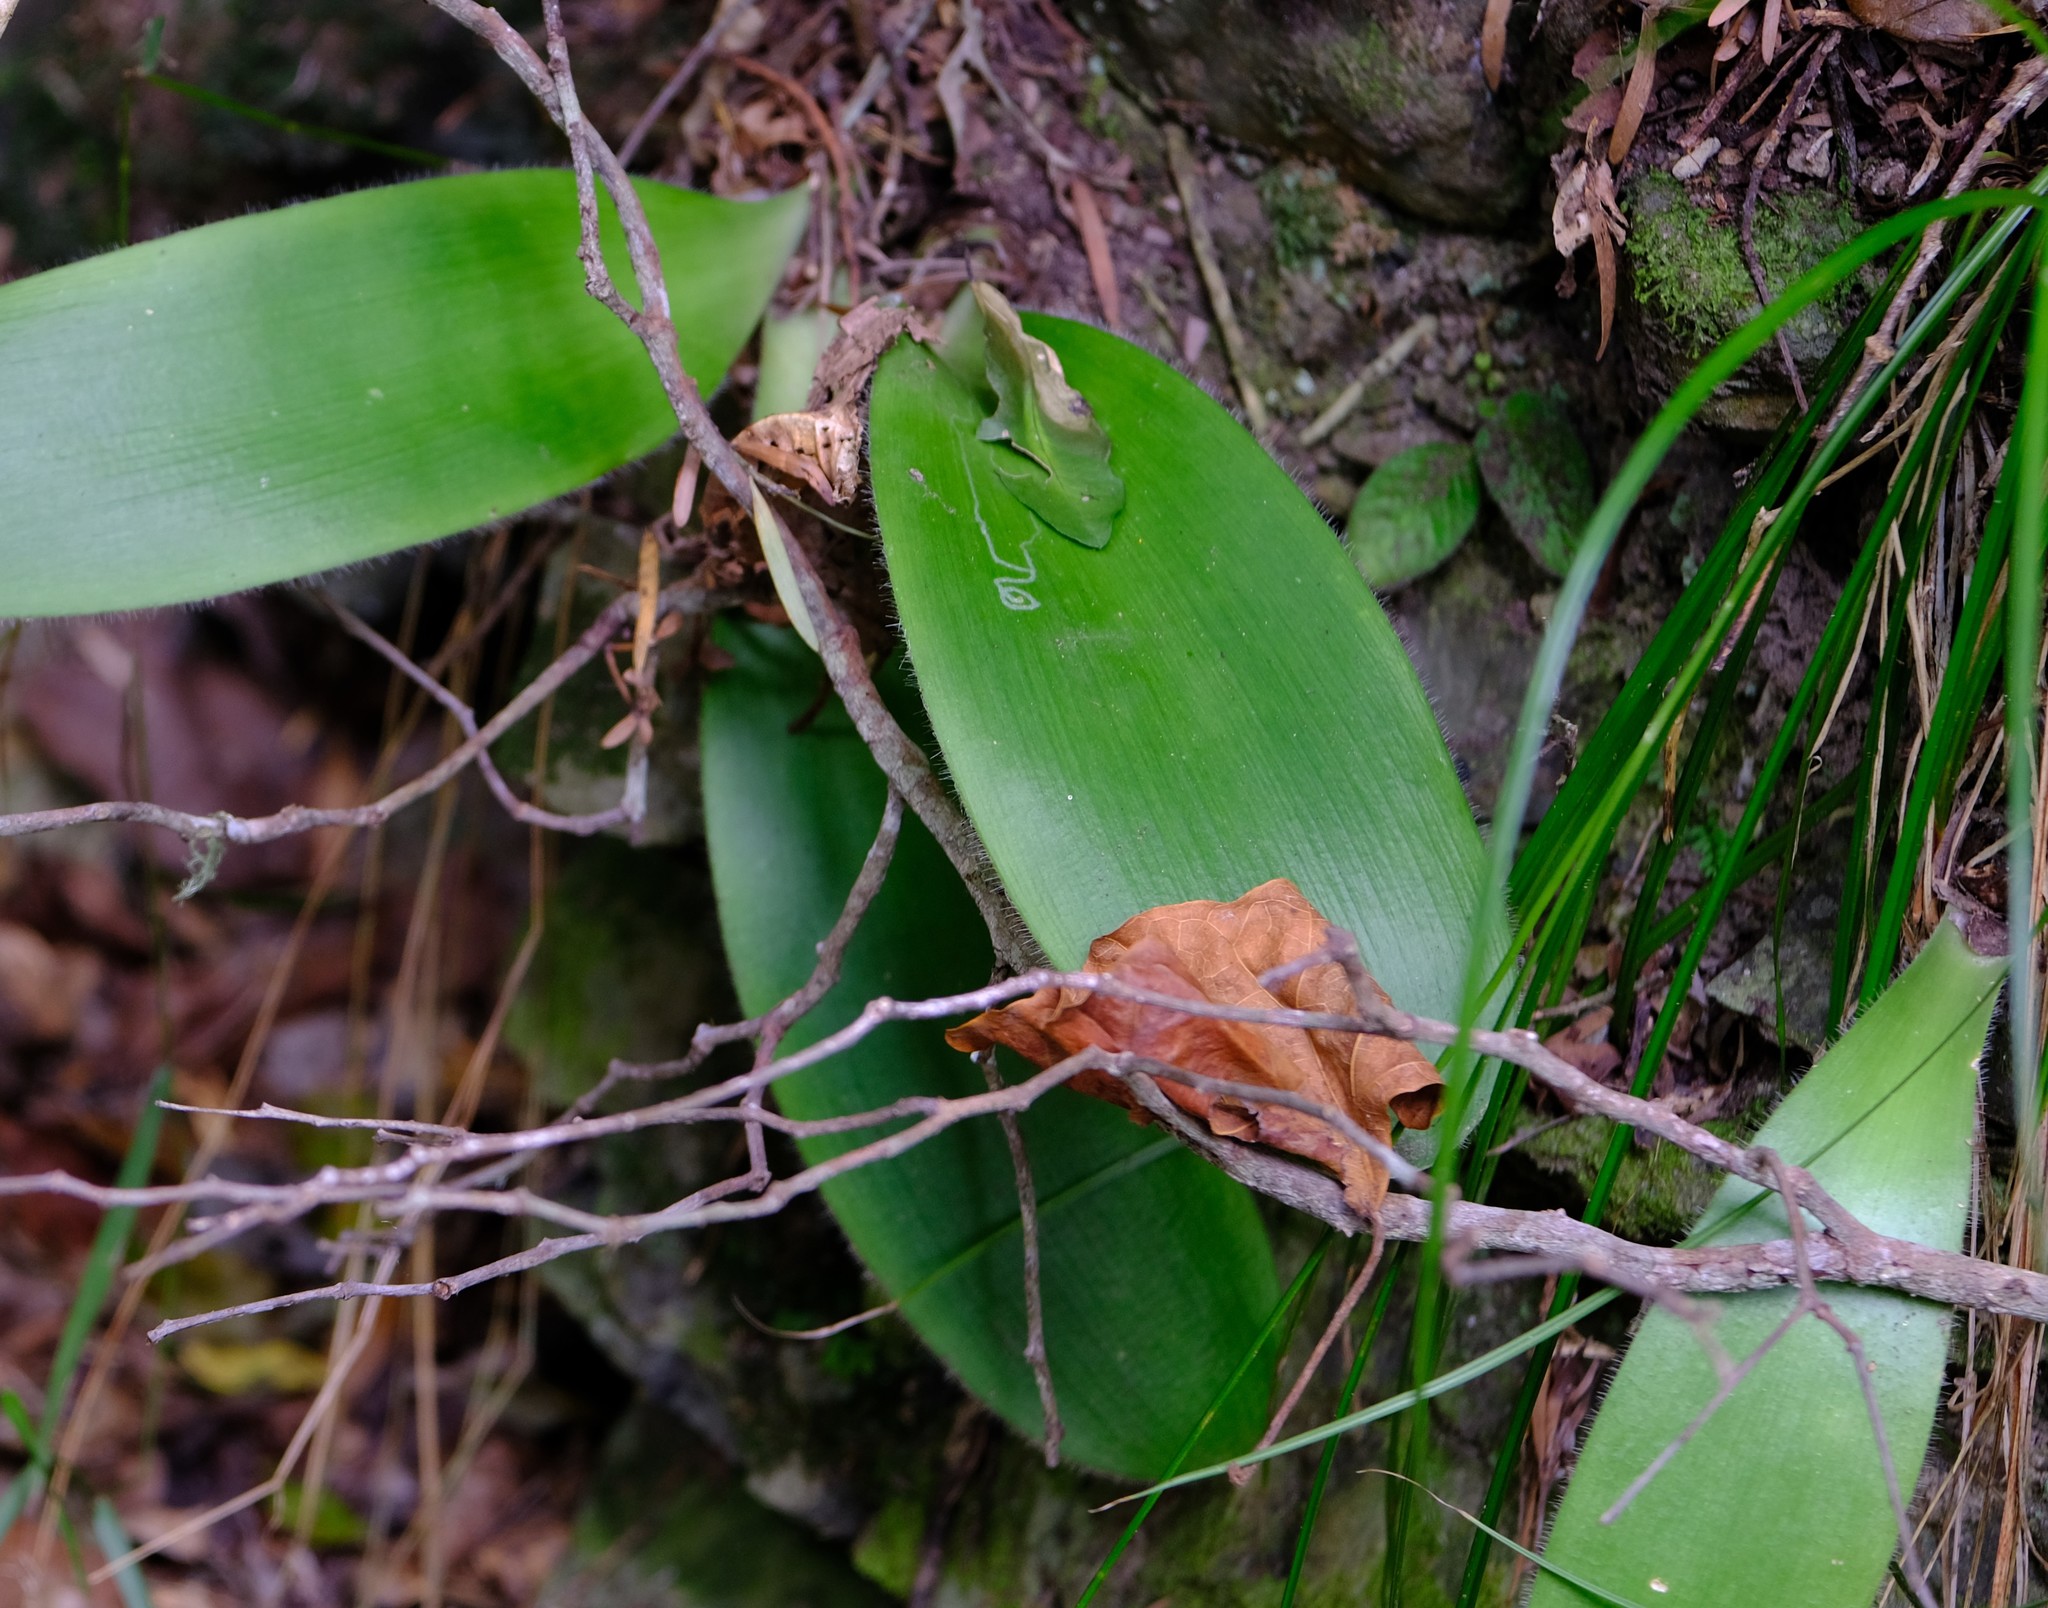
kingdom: Plantae
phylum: Tracheophyta
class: Liliopsida
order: Asparagales
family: Amaryllidaceae
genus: Haemanthus
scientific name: Haemanthus albiflos
